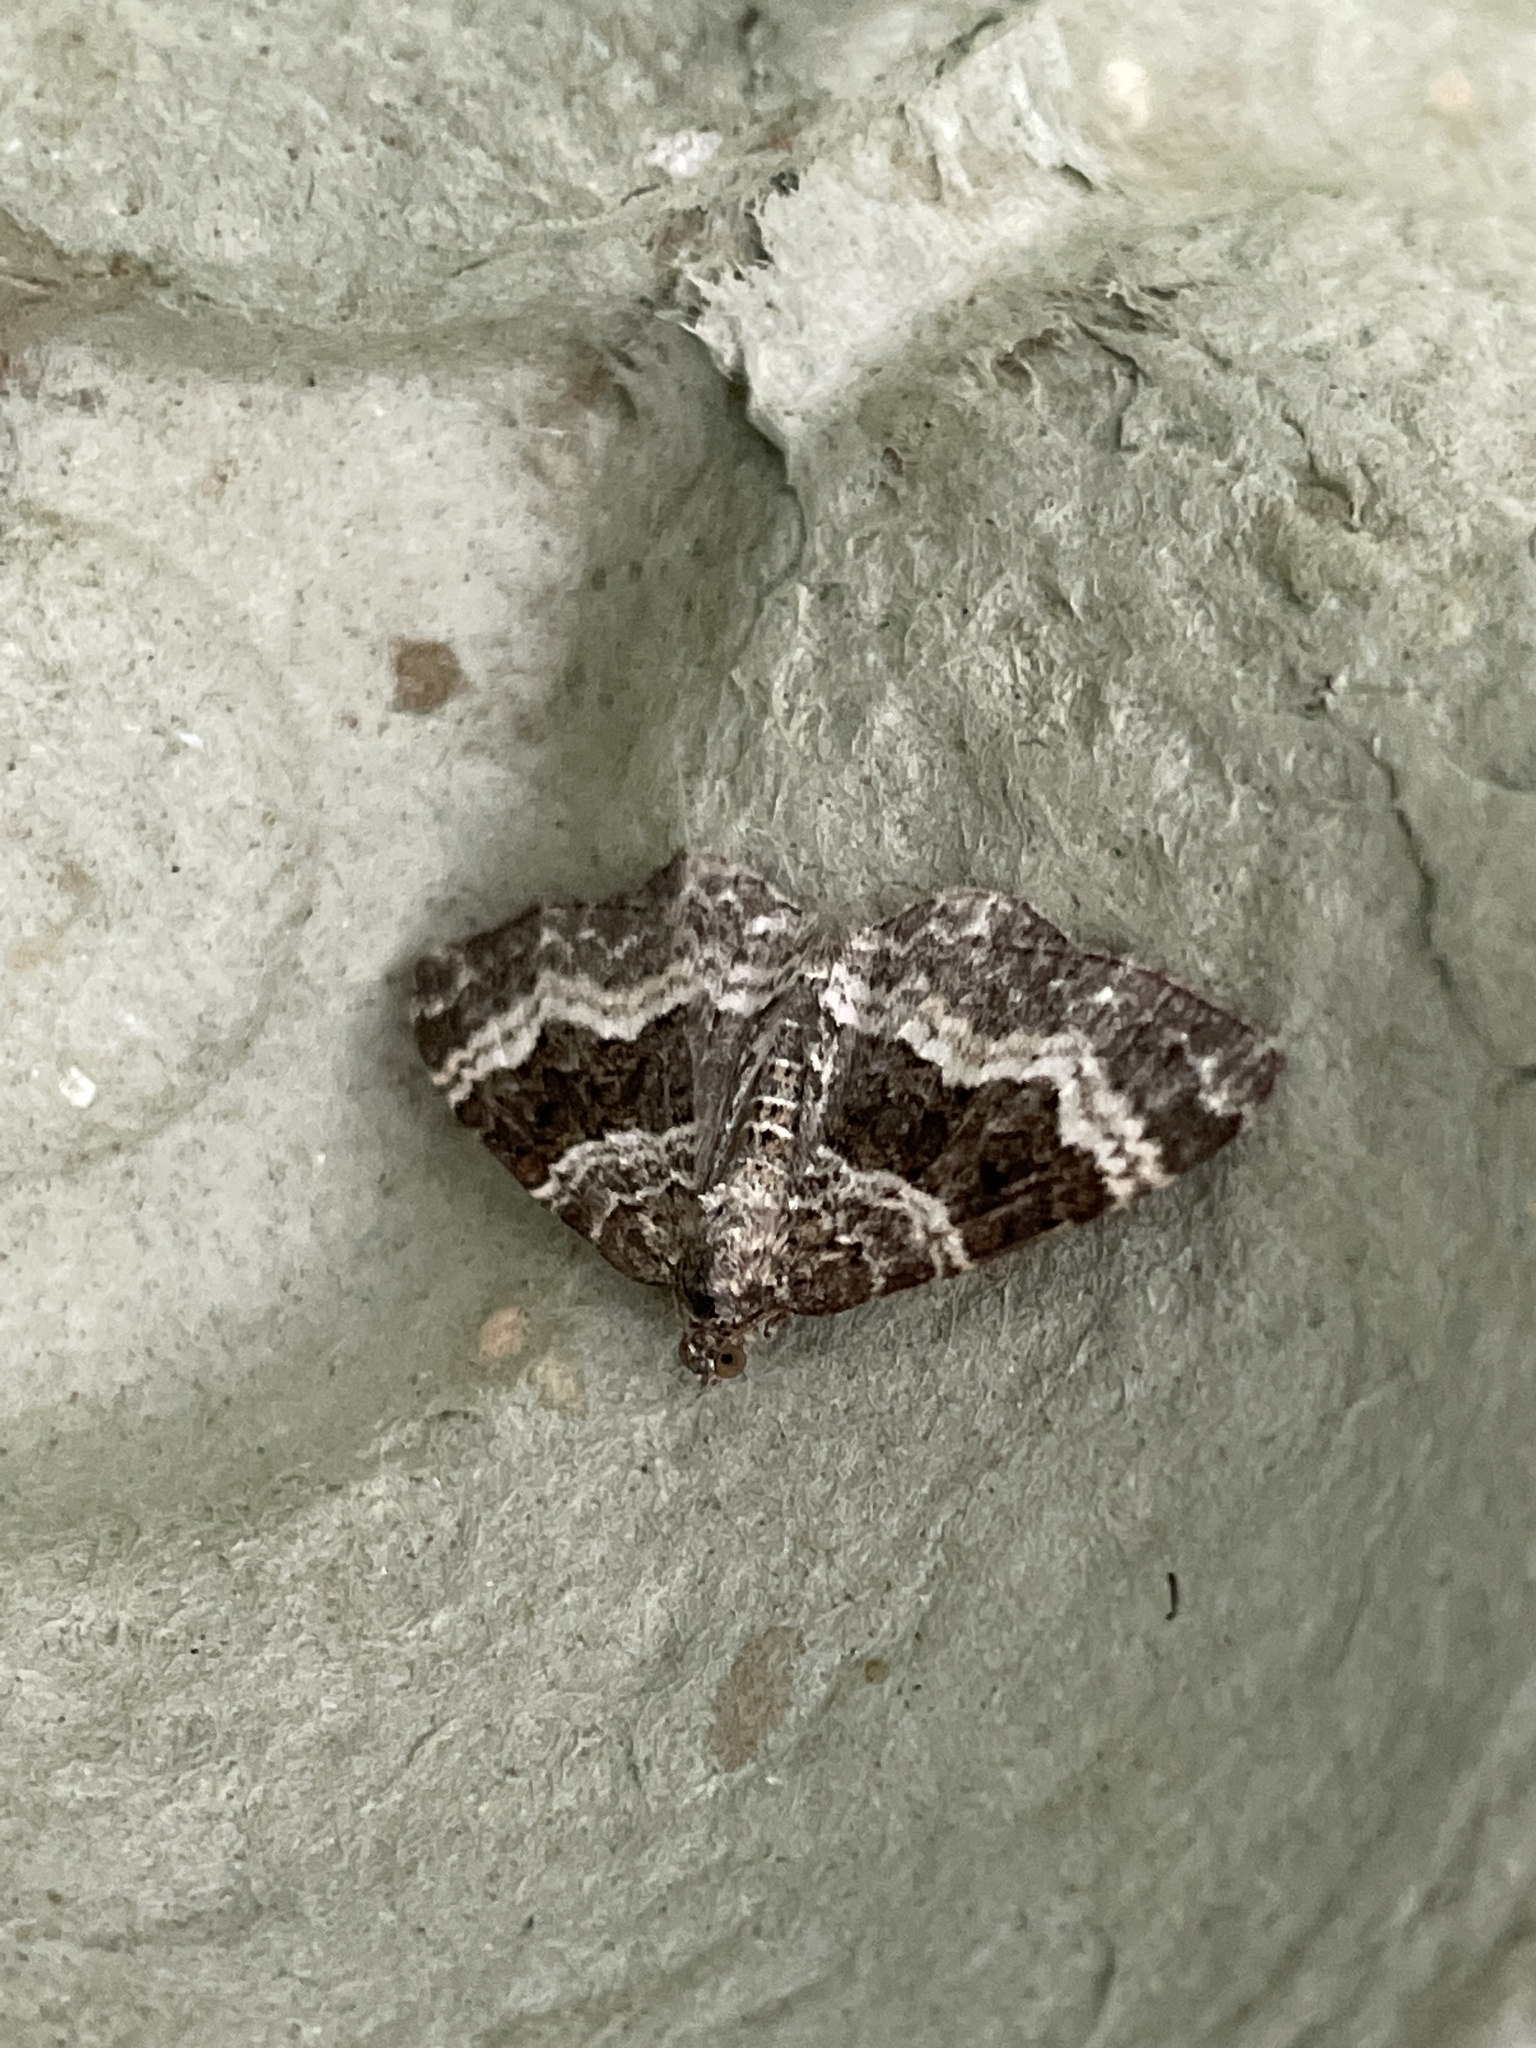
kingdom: Animalia
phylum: Arthropoda
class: Insecta
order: Lepidoptera
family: Geometridae
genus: Epirrhoe
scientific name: Epirrhoe alternata
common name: Common carpet
